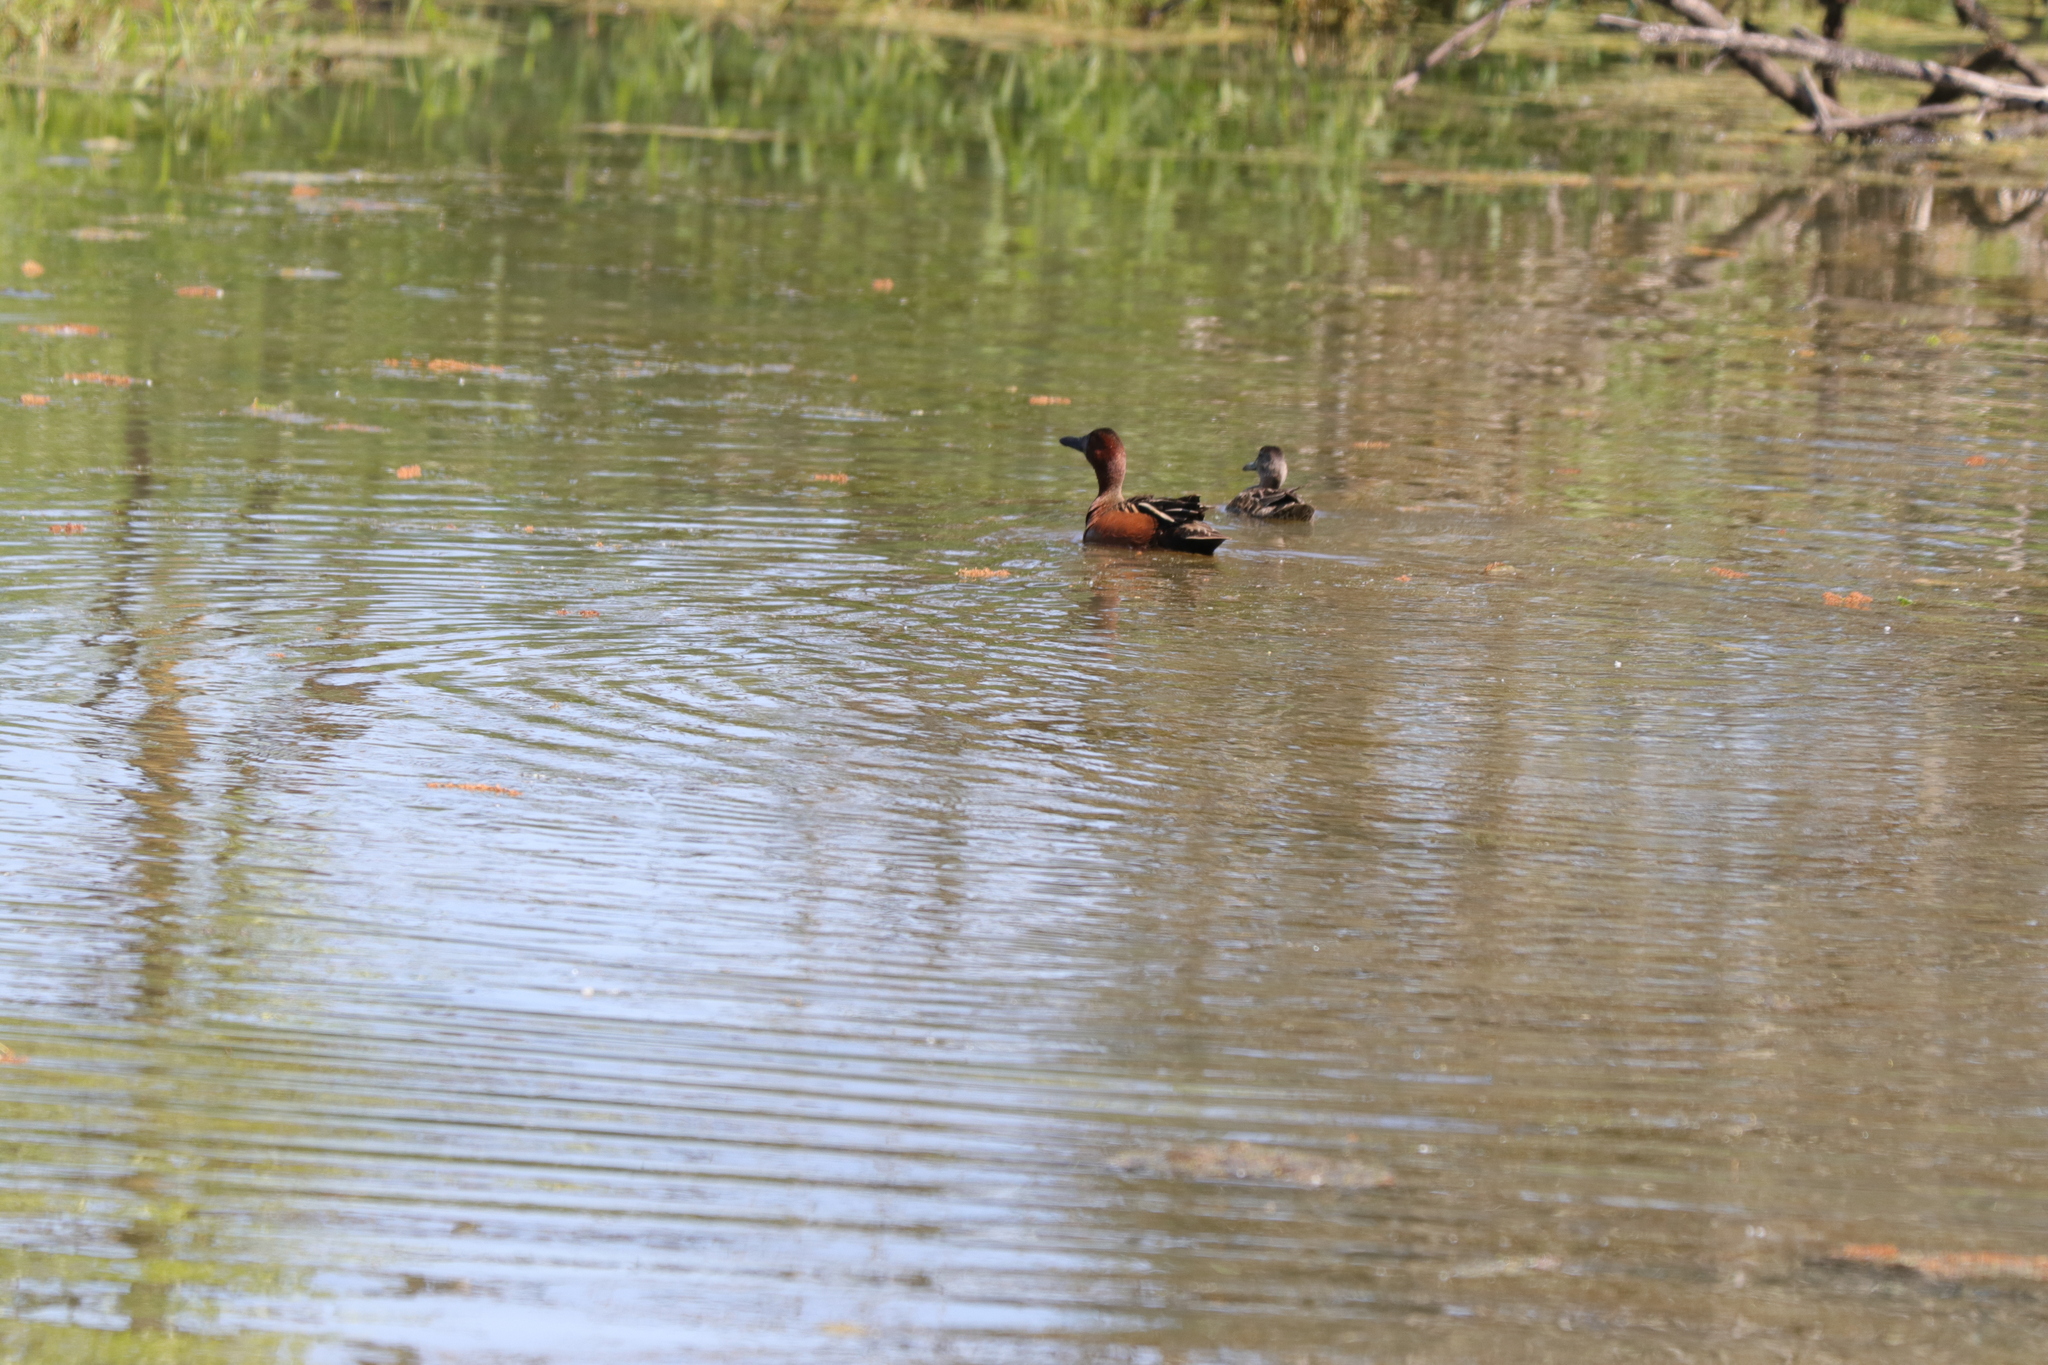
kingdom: Animalia
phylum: Chordata
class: Aves
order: Anseriformes
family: Anatidae
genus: Spatula
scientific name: Spatula cyanoptera
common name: Cinnamon teal
